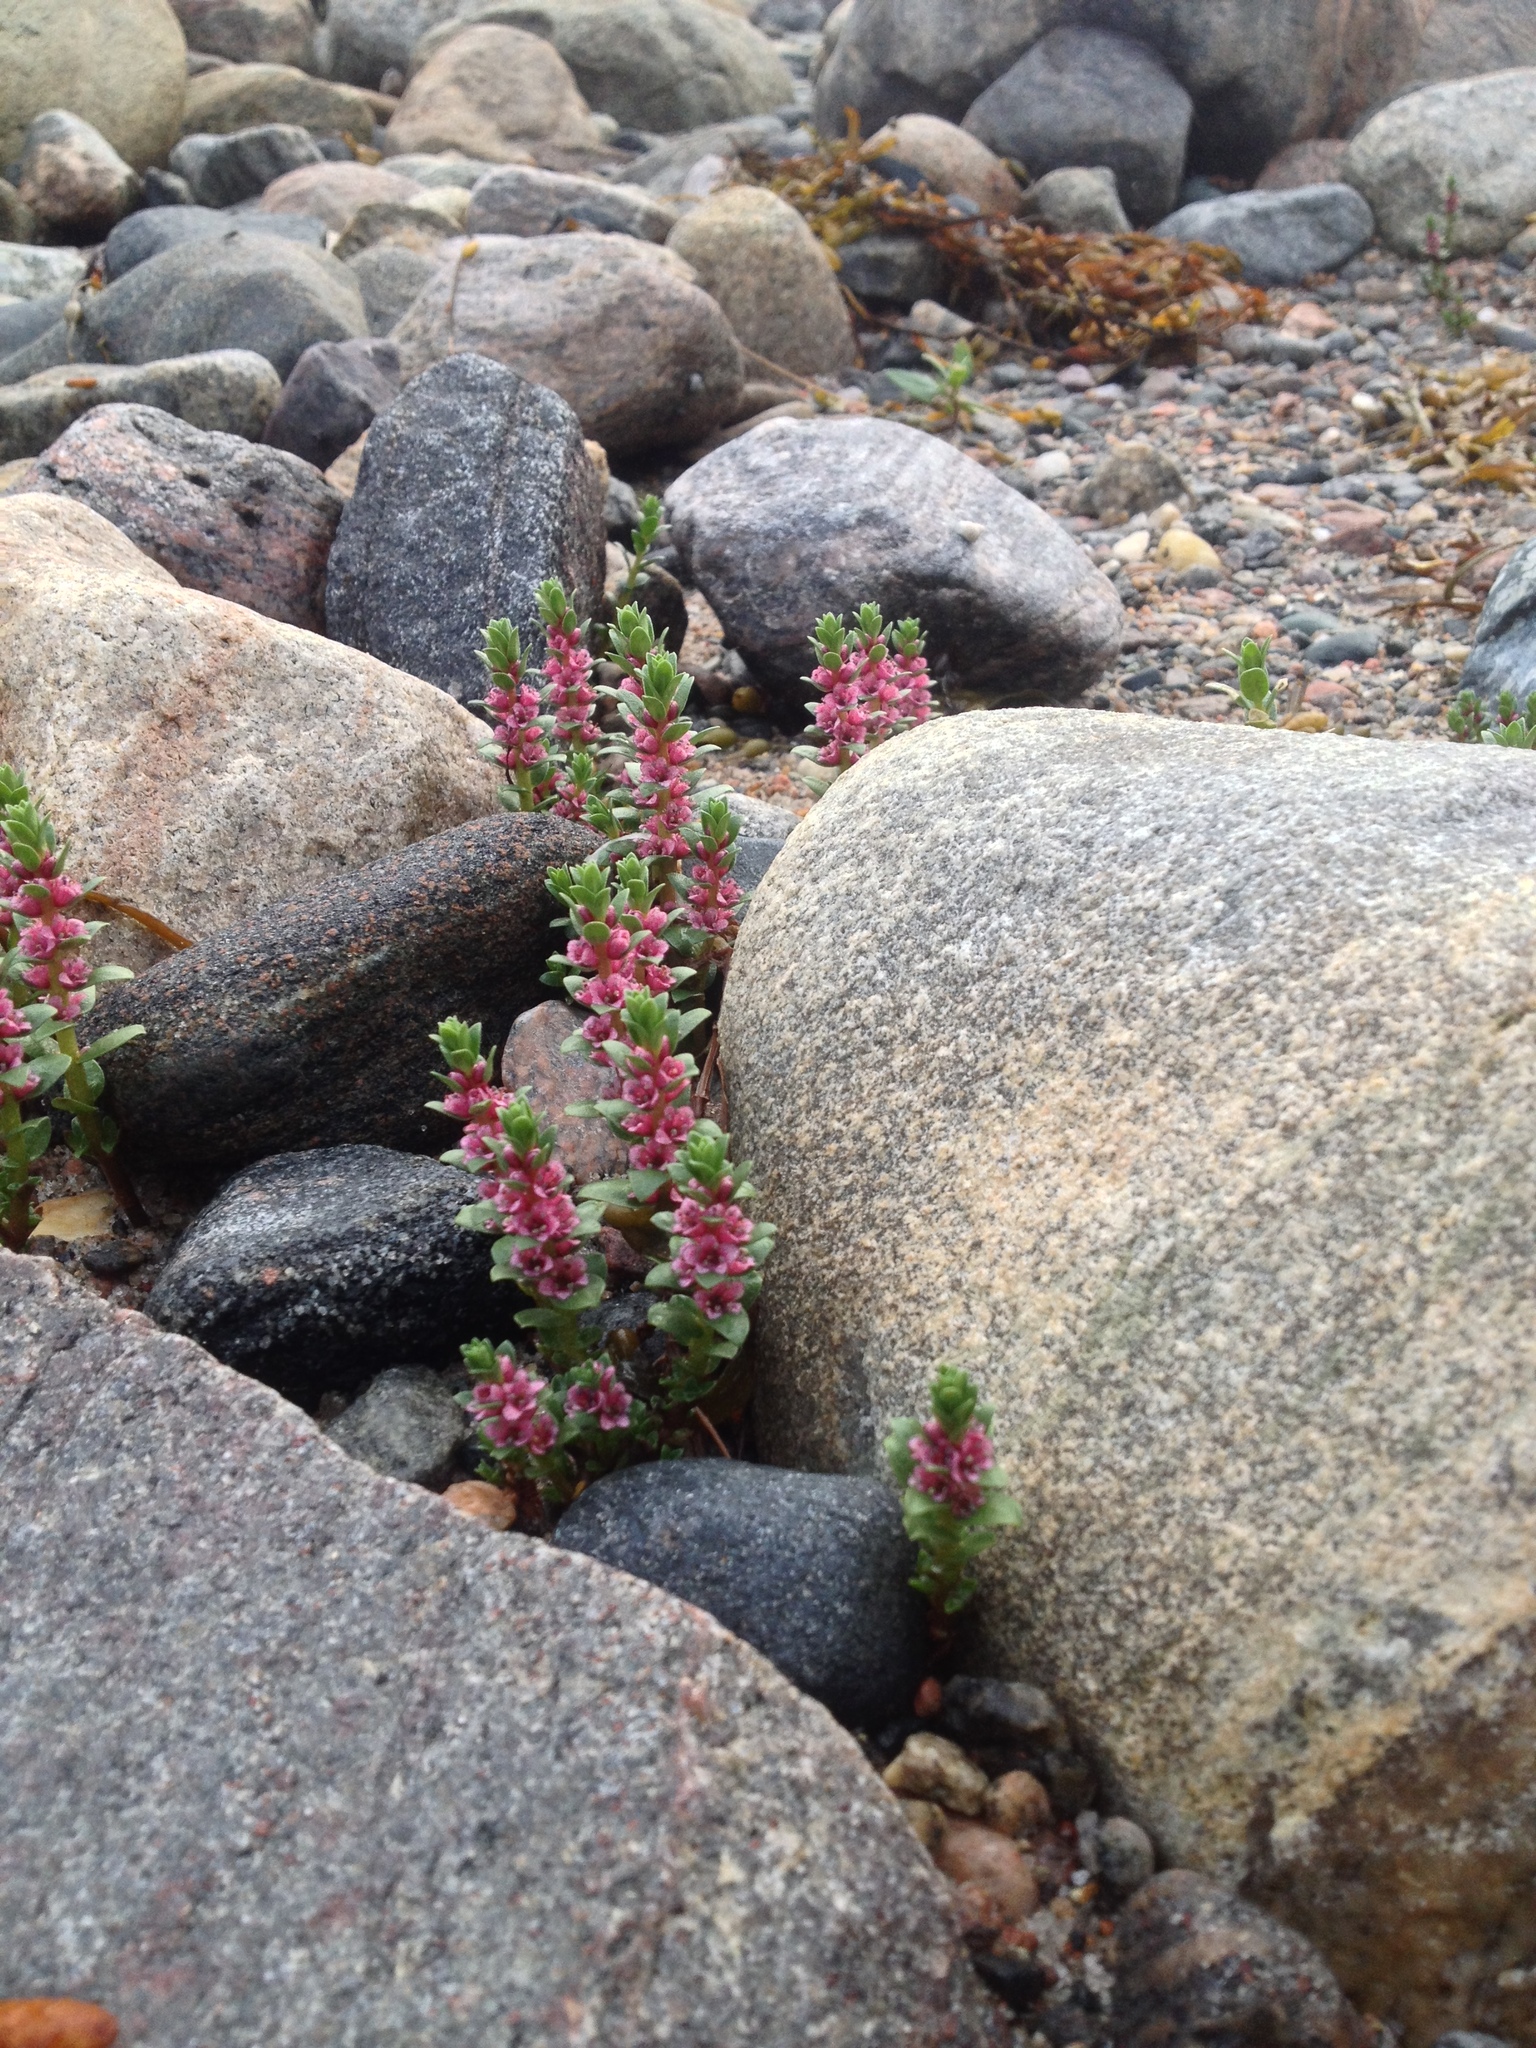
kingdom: Plantae
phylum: Tracheophyta
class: Magnoliopsida
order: Ericales
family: Primulaceae
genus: Lysimachia
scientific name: Lysimachia maritima
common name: Sea milkwort
